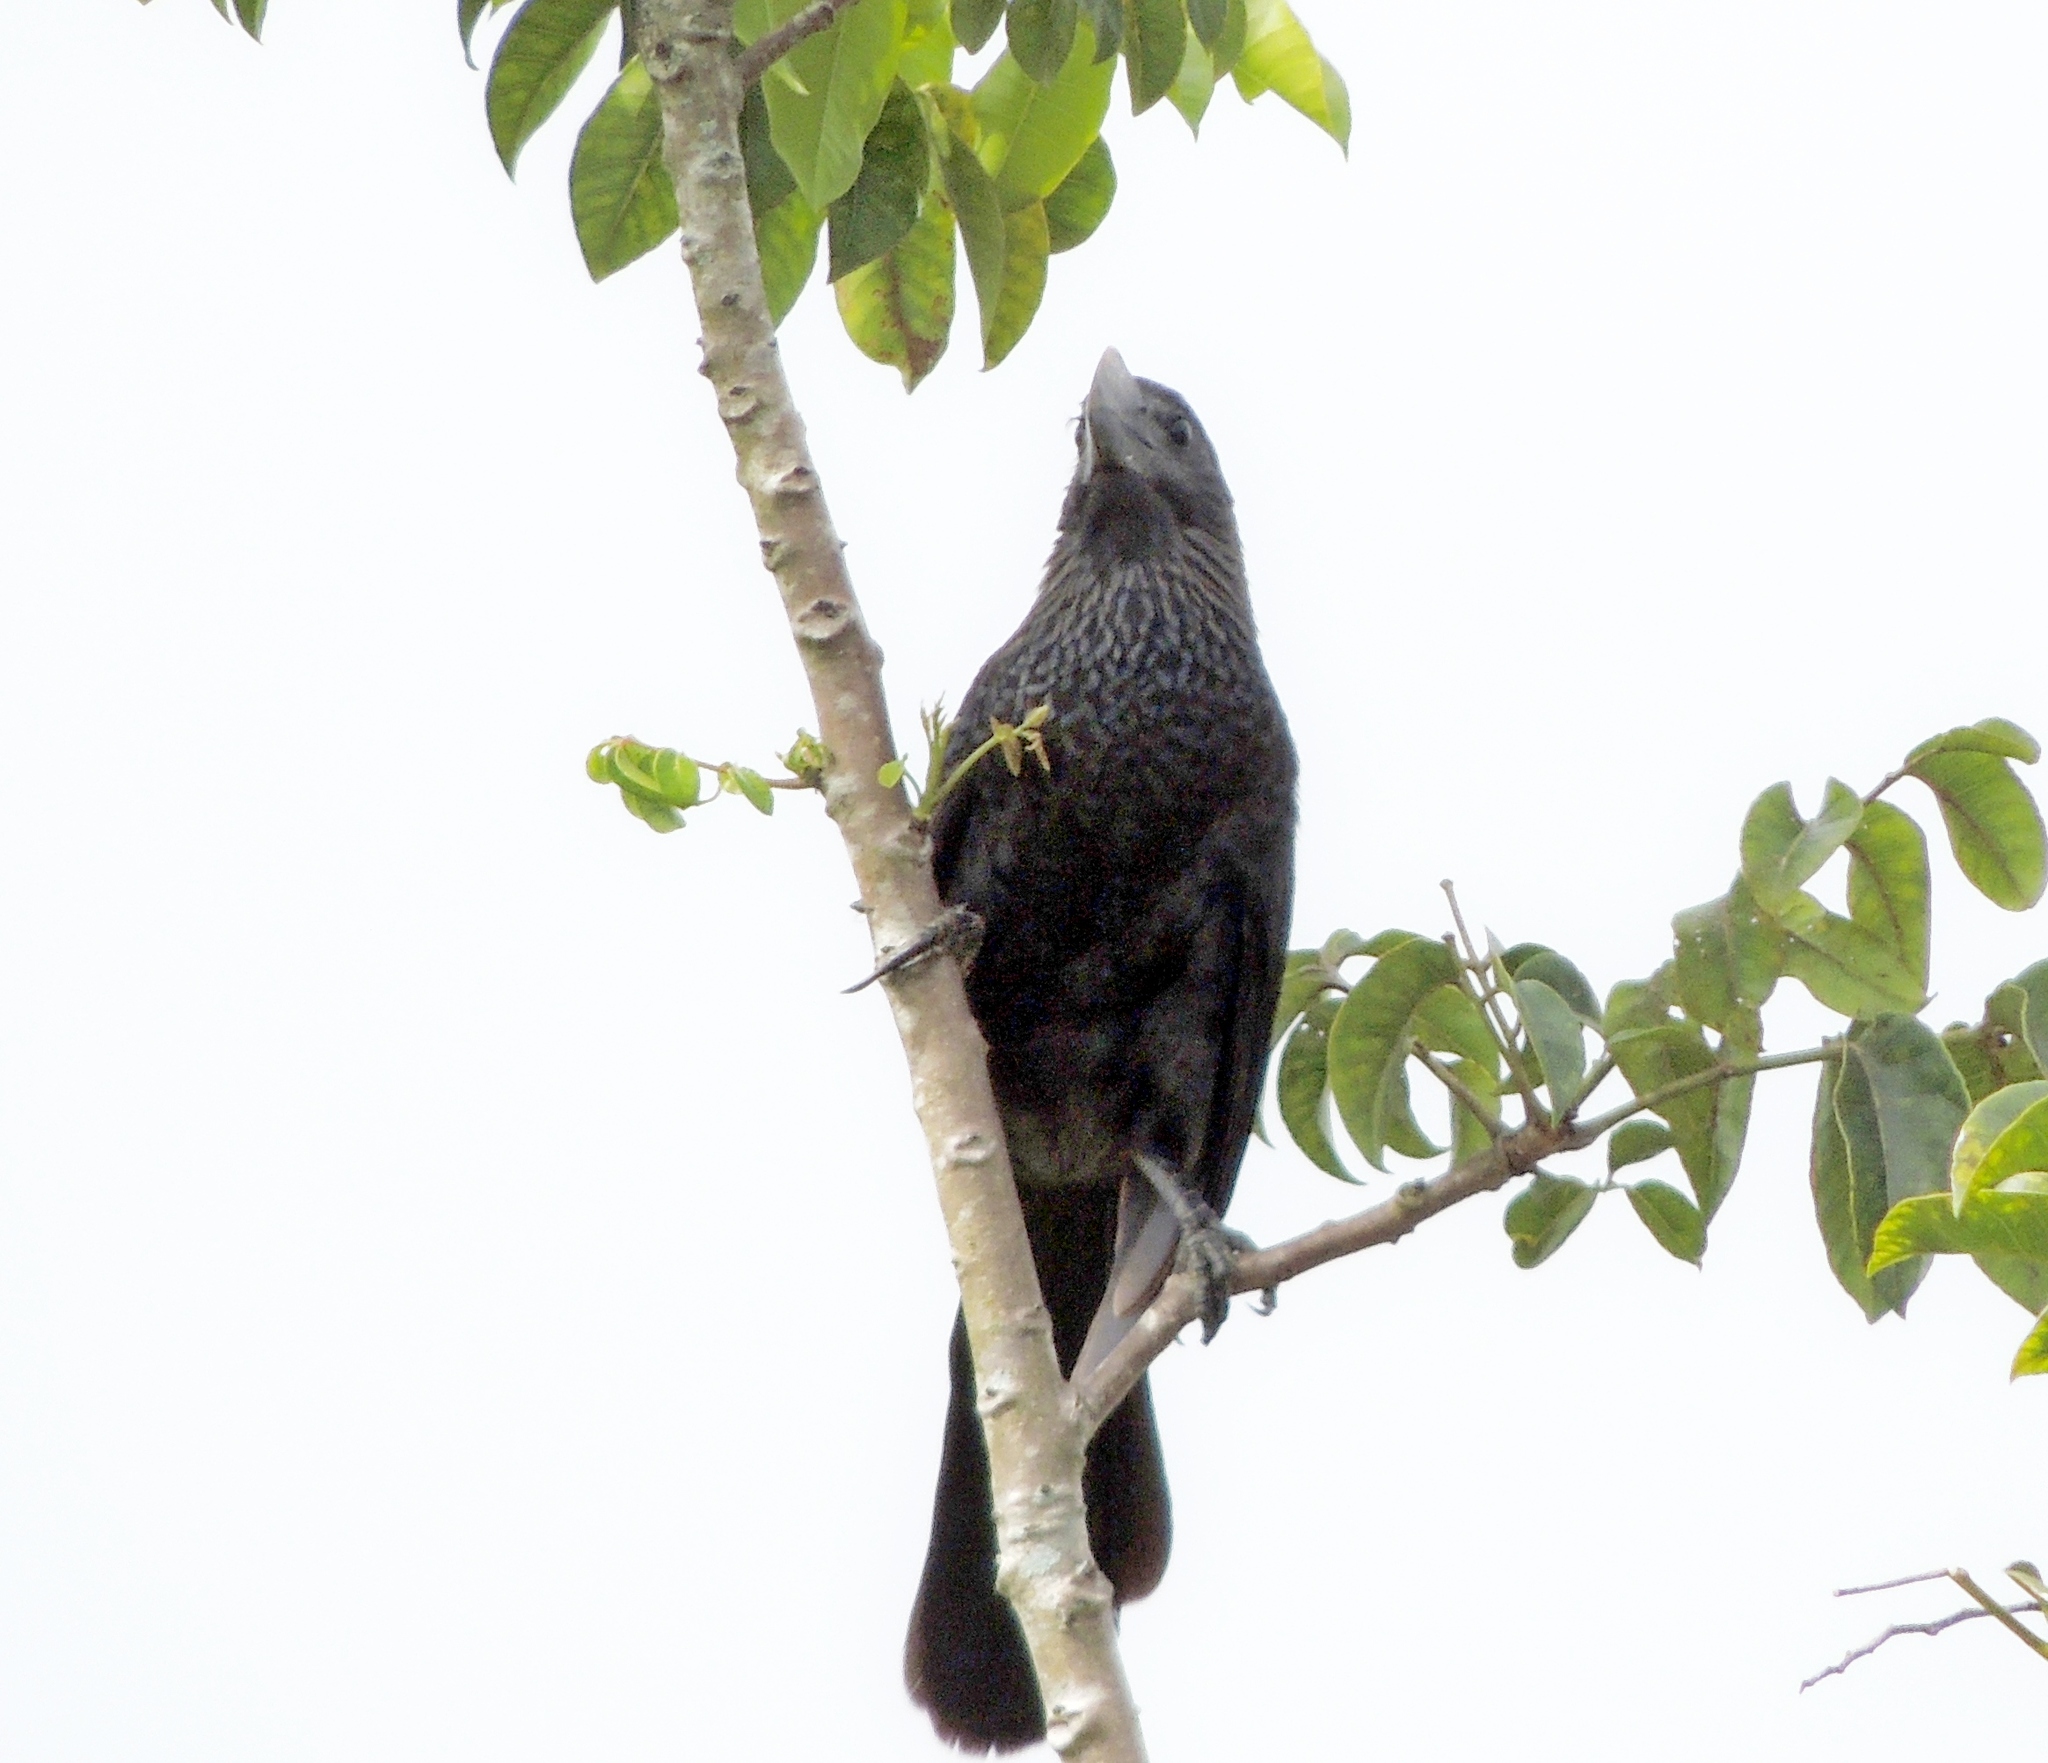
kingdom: Animalia
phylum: Chordata
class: Aves
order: Cuculiformes
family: Cuculidae
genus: Crotophaga
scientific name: Crotophaga ani
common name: Smooth-billed ani
